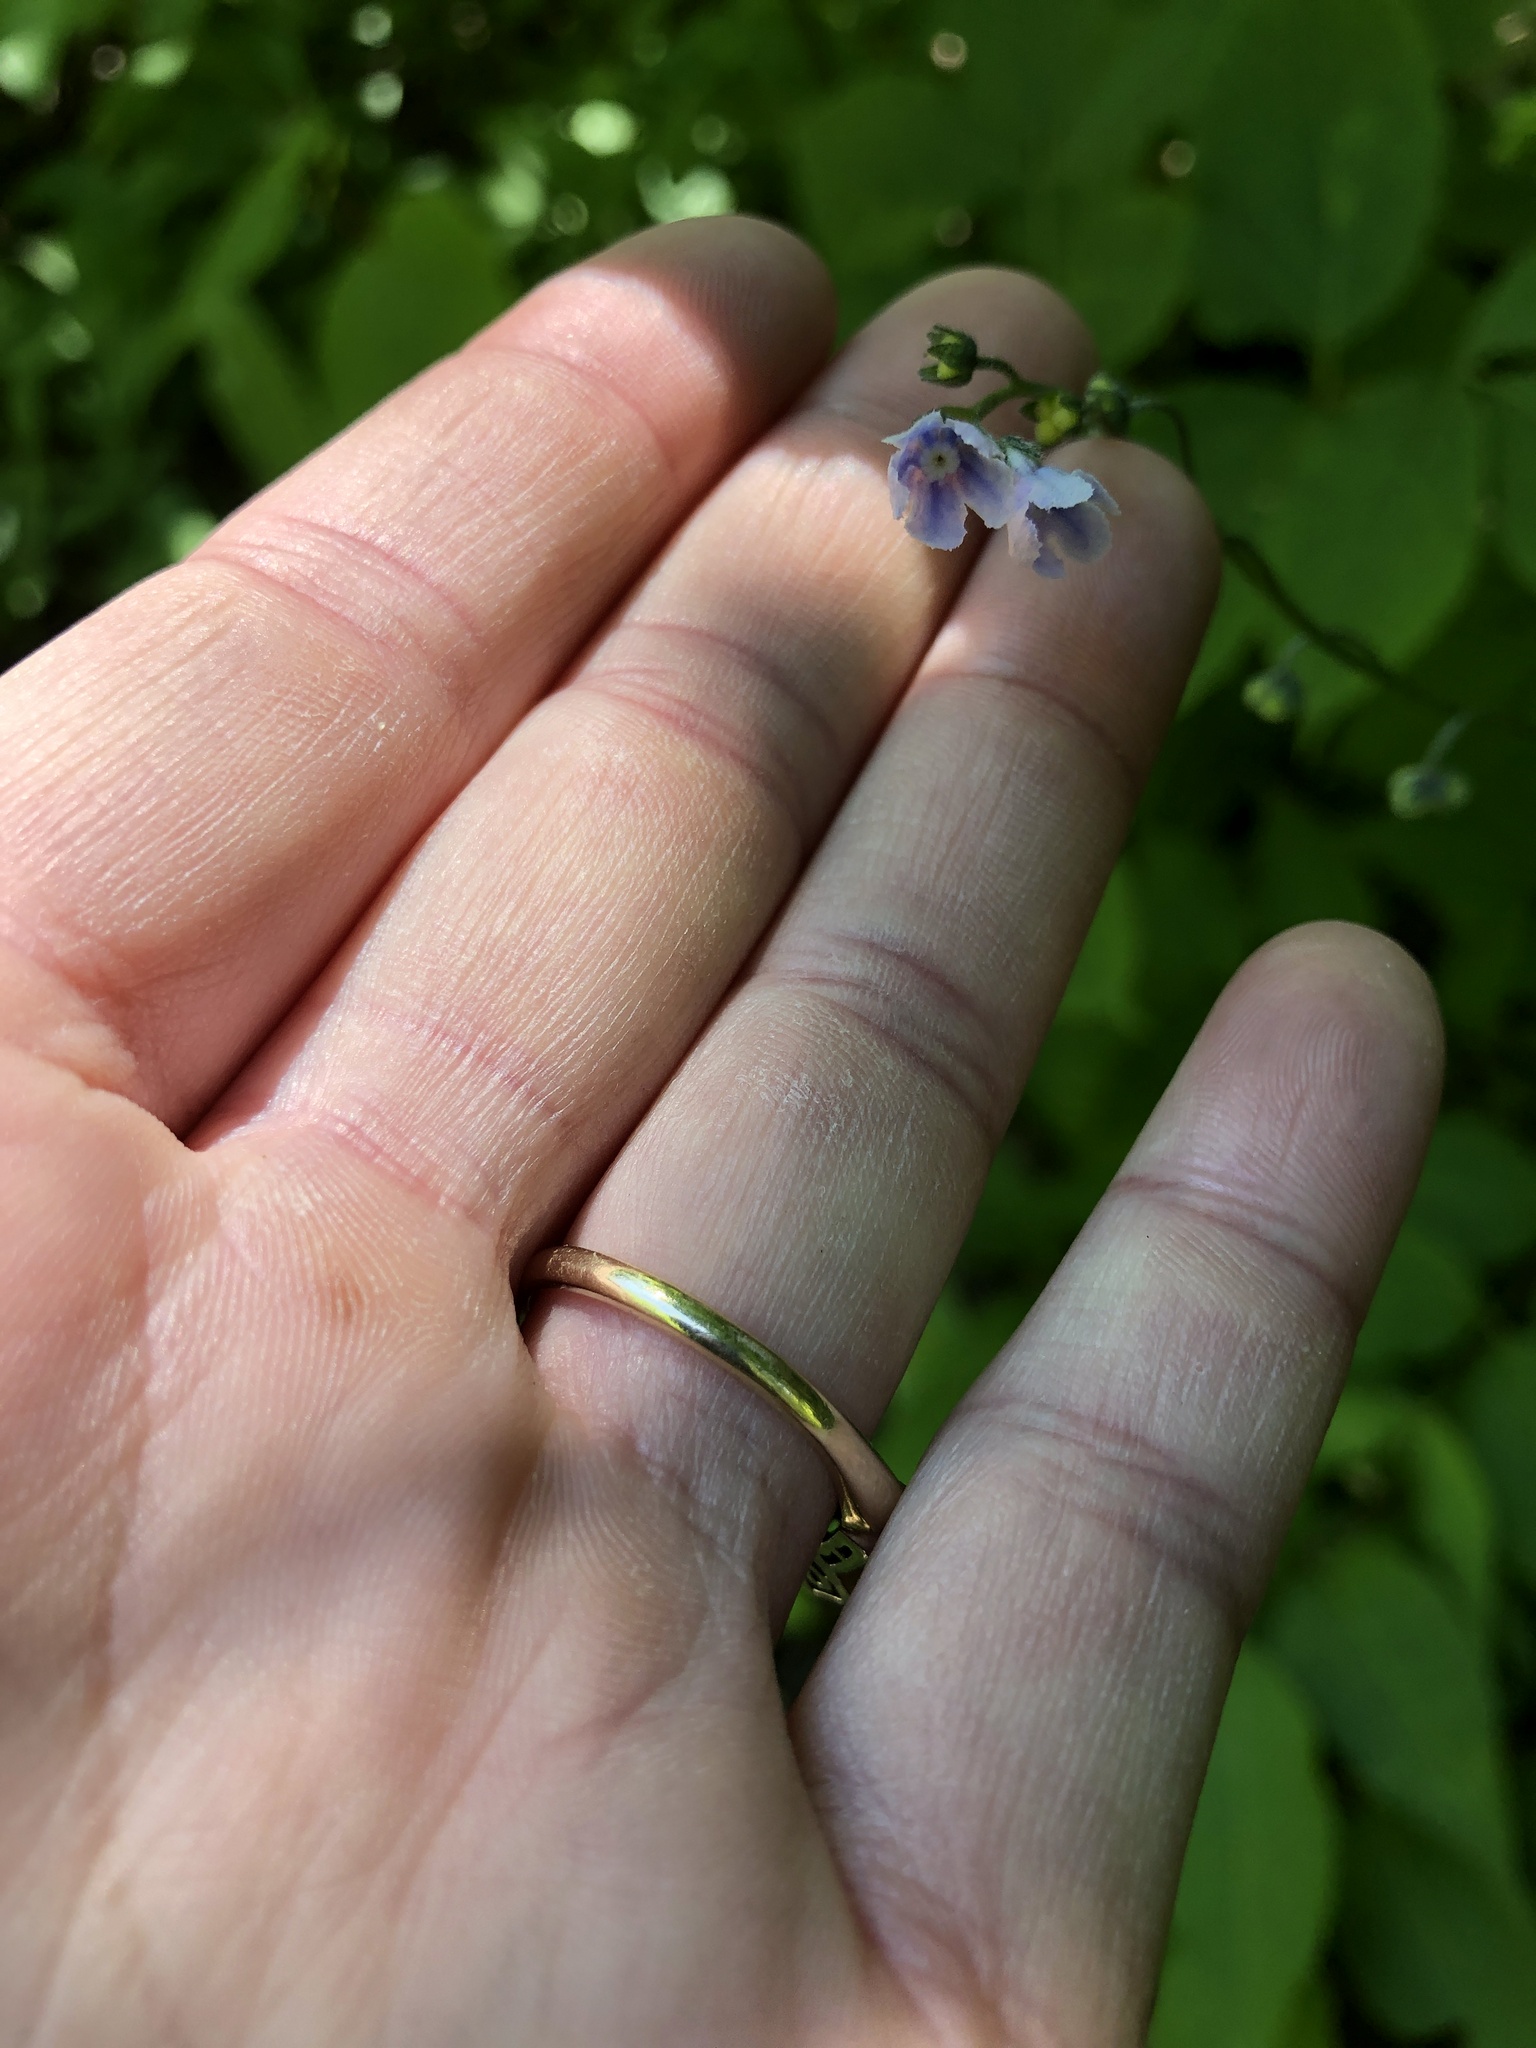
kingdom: Plantae
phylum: Tracheophyta
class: Magnoliopsida
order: Boraginales
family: Boraginaceae
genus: Andersonglossum
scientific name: Andersonglossum boreale
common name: Northern hound's-tongue
